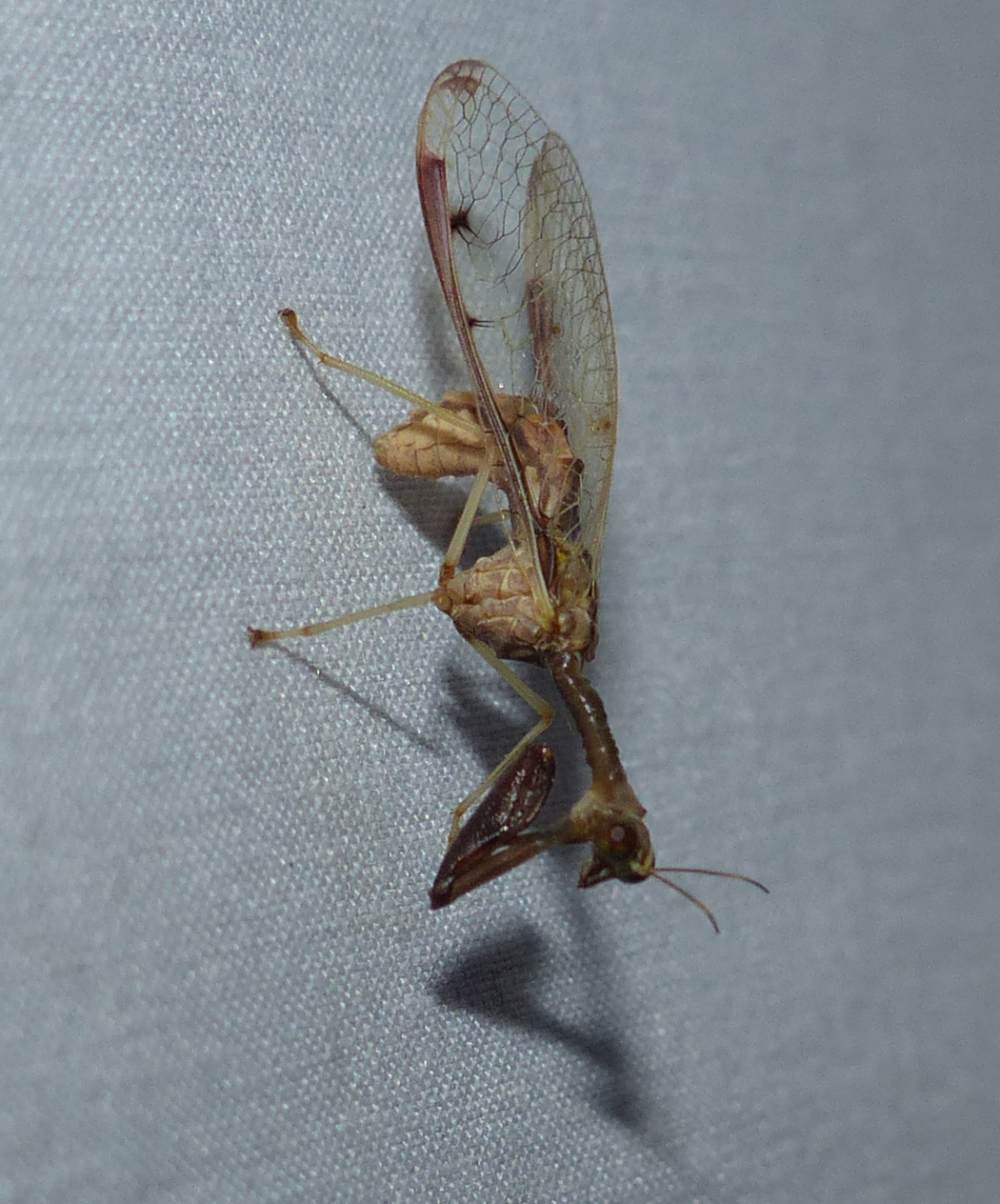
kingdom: Animalia
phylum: Arthropoda
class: Insecta
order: Neuroptera
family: Mantispidae
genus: Dicromantispa
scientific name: Dicromantispa interrupta
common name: Four-spotted mantidfly
